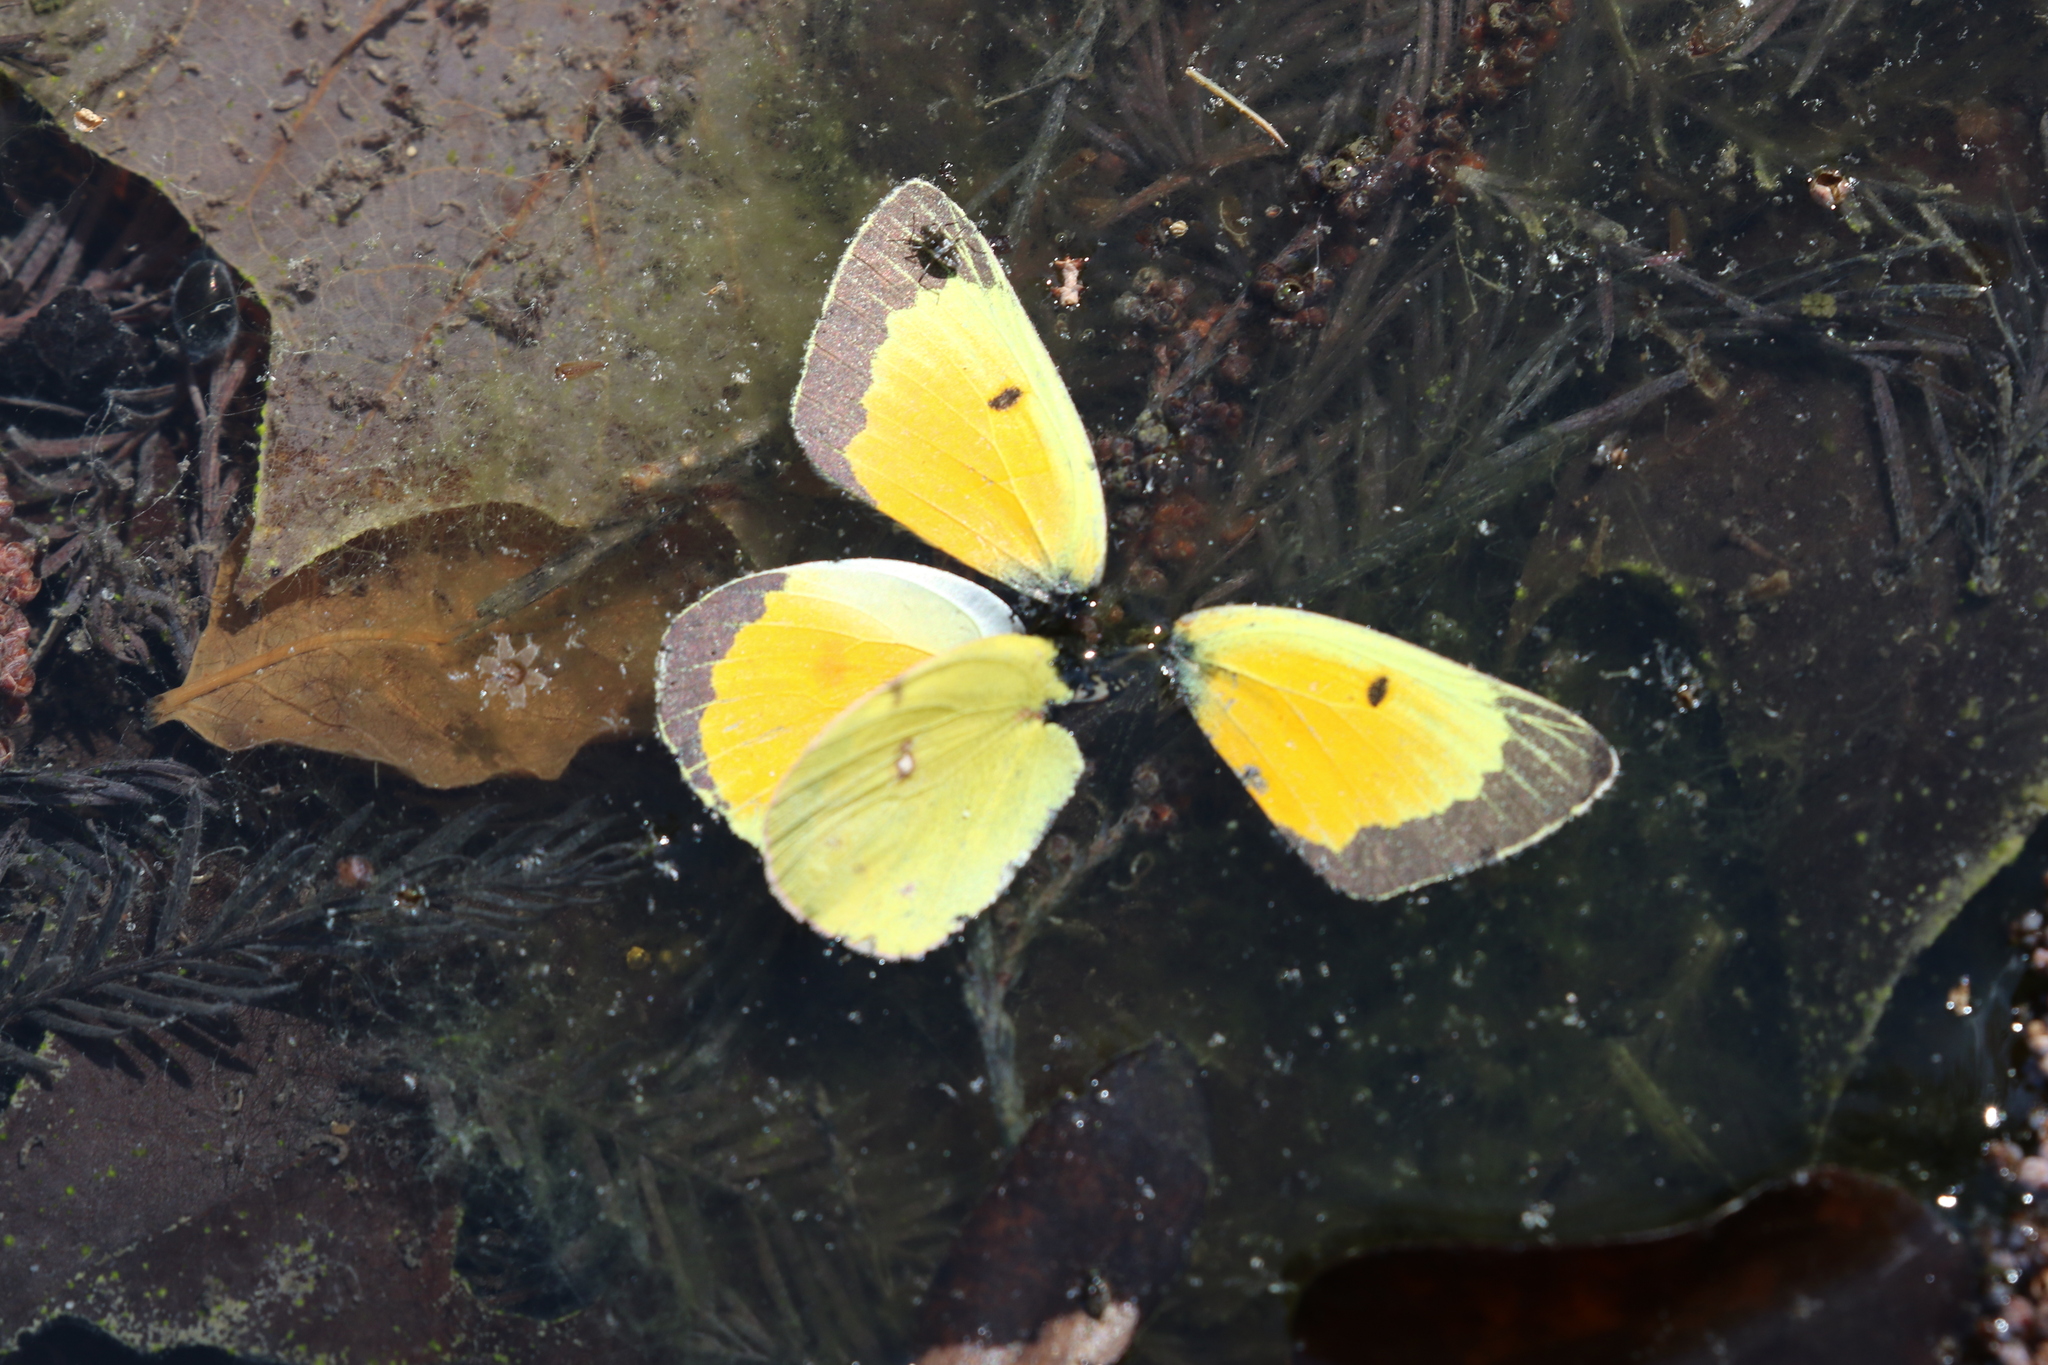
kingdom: Animalia
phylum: Arthropoda
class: Insecta
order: Lepidoptera
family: Pieridae
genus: Colias
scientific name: Colias eurytheme
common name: Alfalfa butterfly
